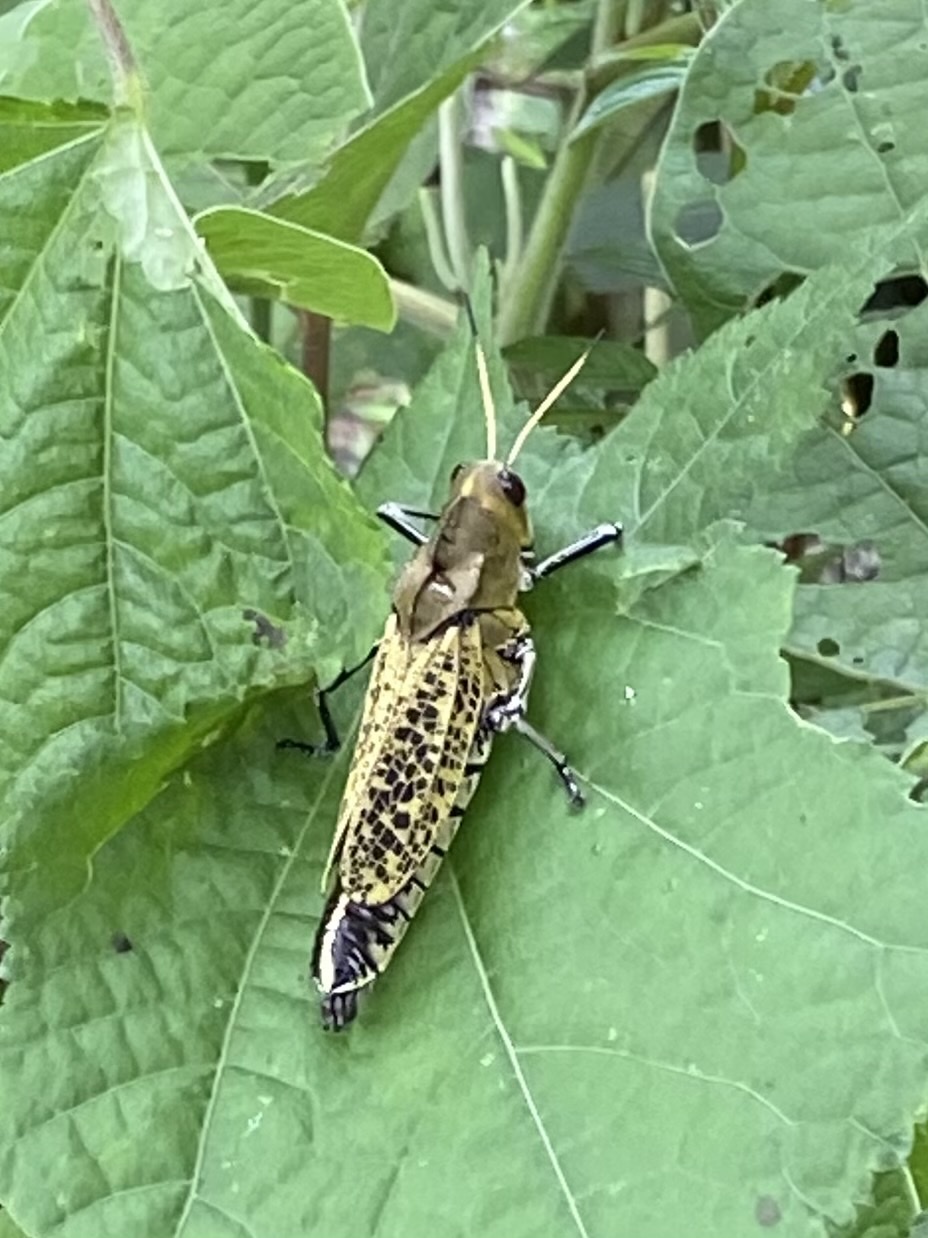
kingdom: Animalia
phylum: Arthropoda
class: Insecta
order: Orthoptera
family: Romaleidae
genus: Romalea
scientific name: Romalea
